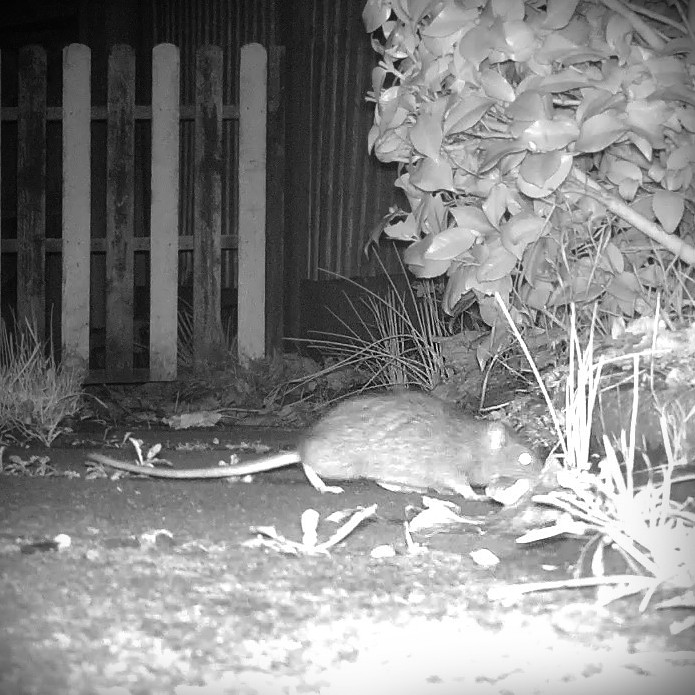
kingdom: Animalia
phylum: Chordata
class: Mammalia
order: Rodentia
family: Muridae
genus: Rattus
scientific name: Rattus norvegicus
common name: Brown rat
